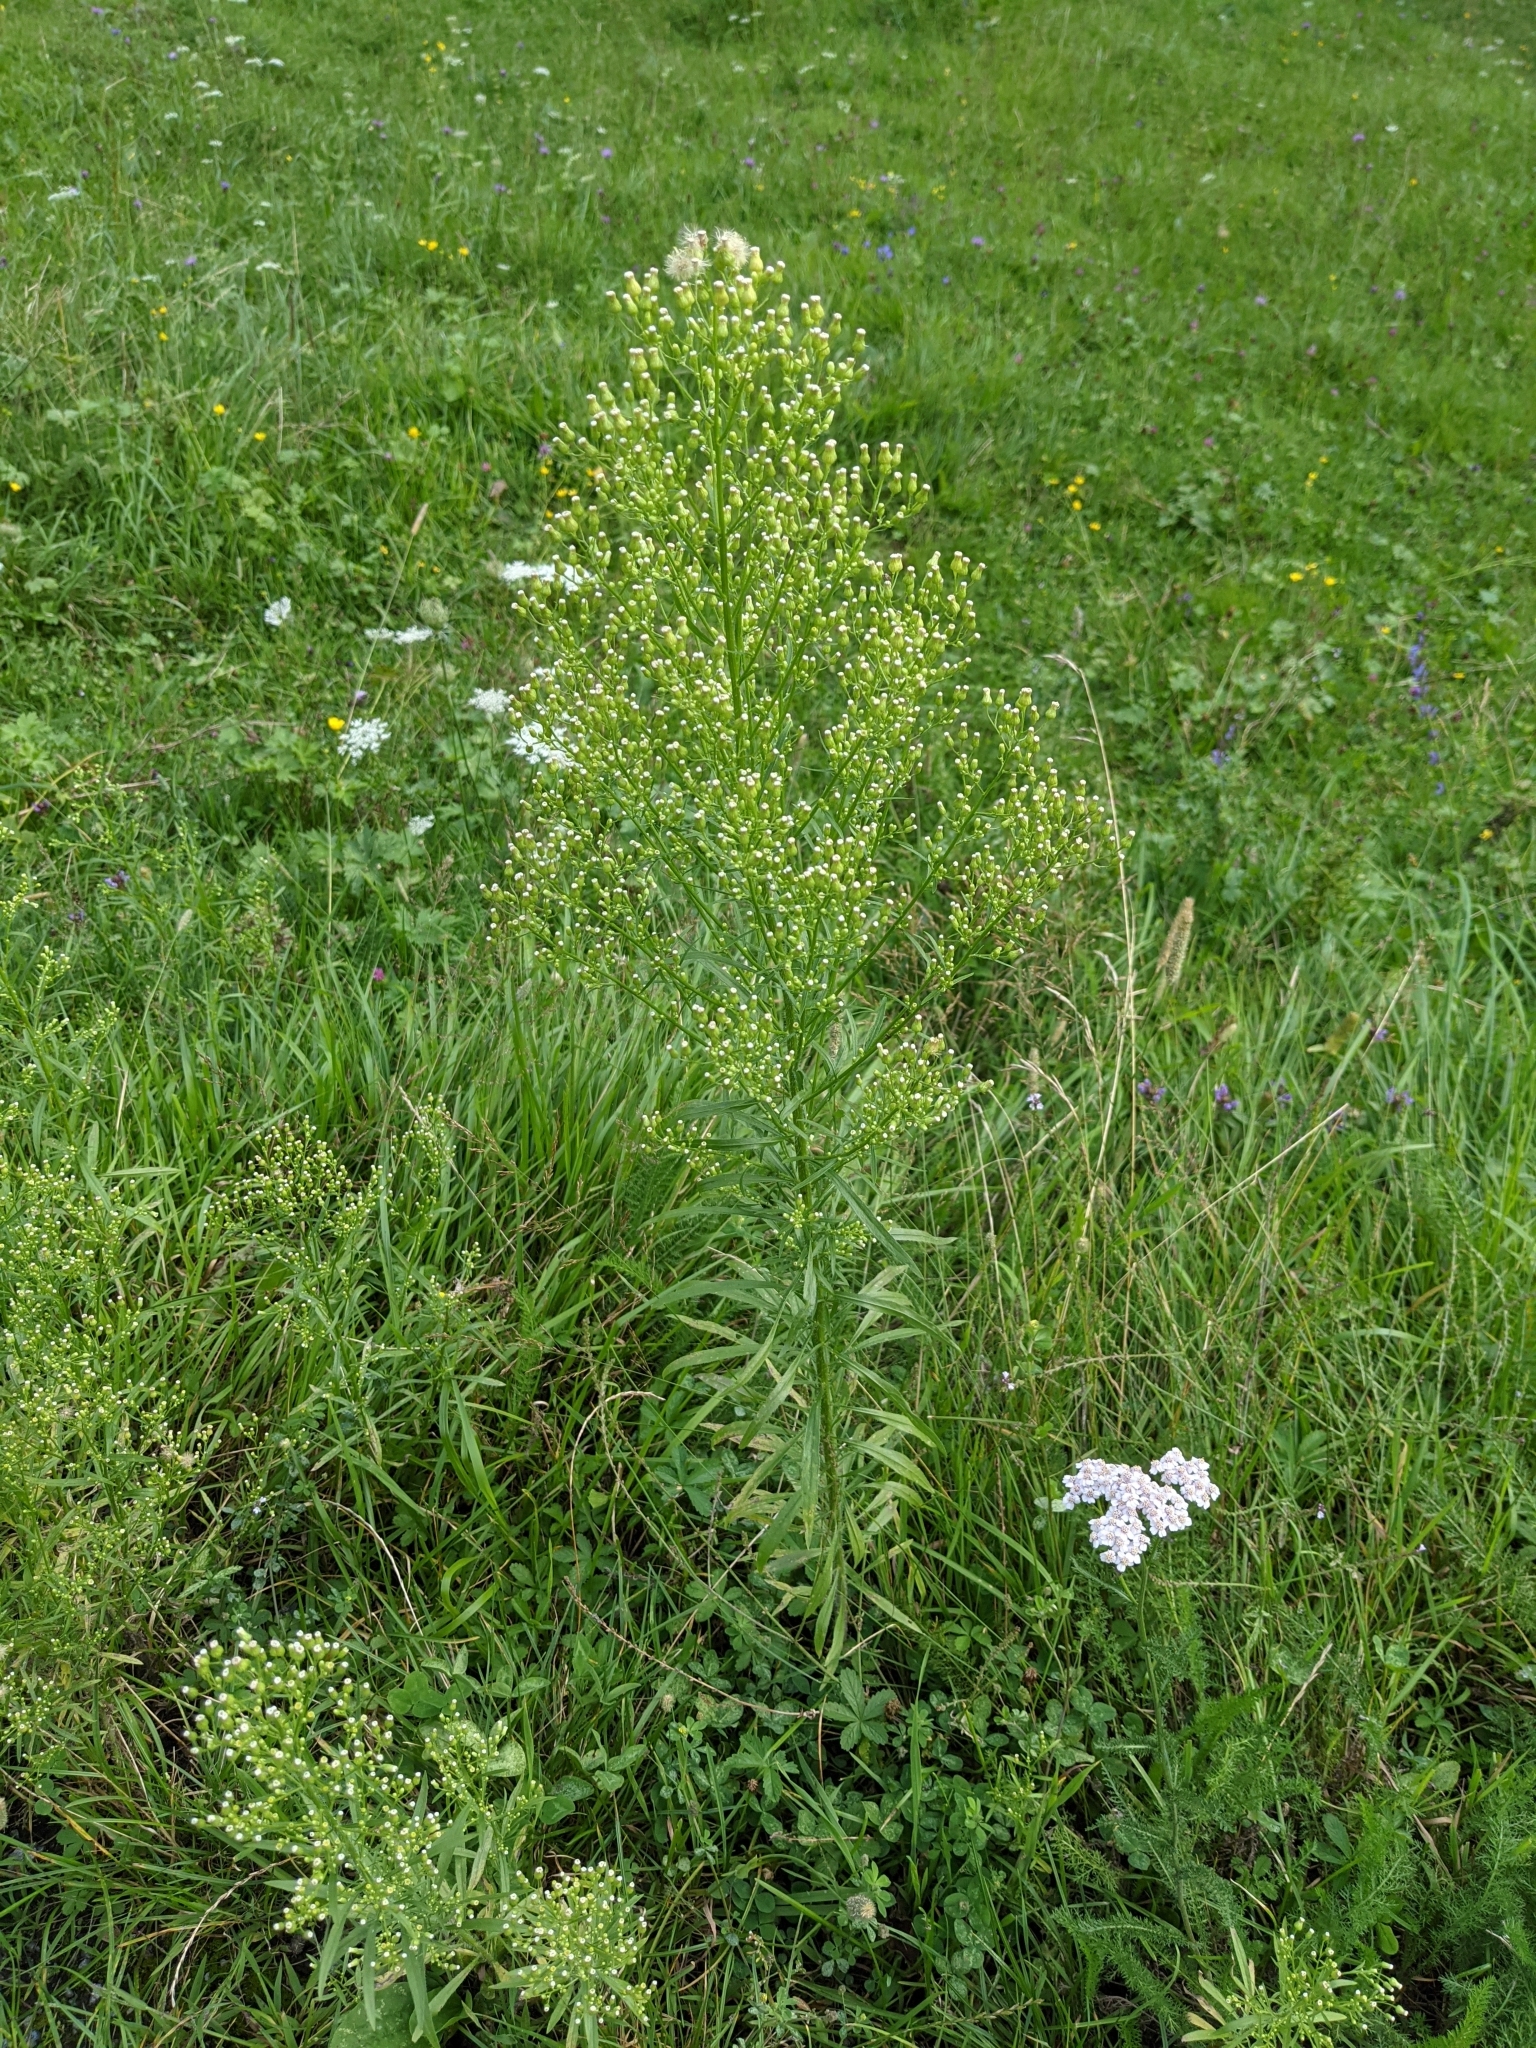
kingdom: Plantae
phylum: Tracheophyta
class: Magnoliopsida
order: Asterales
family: Asteraceae
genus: Erigeron
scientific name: Erigeron canadensis
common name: Canadian fleabane
